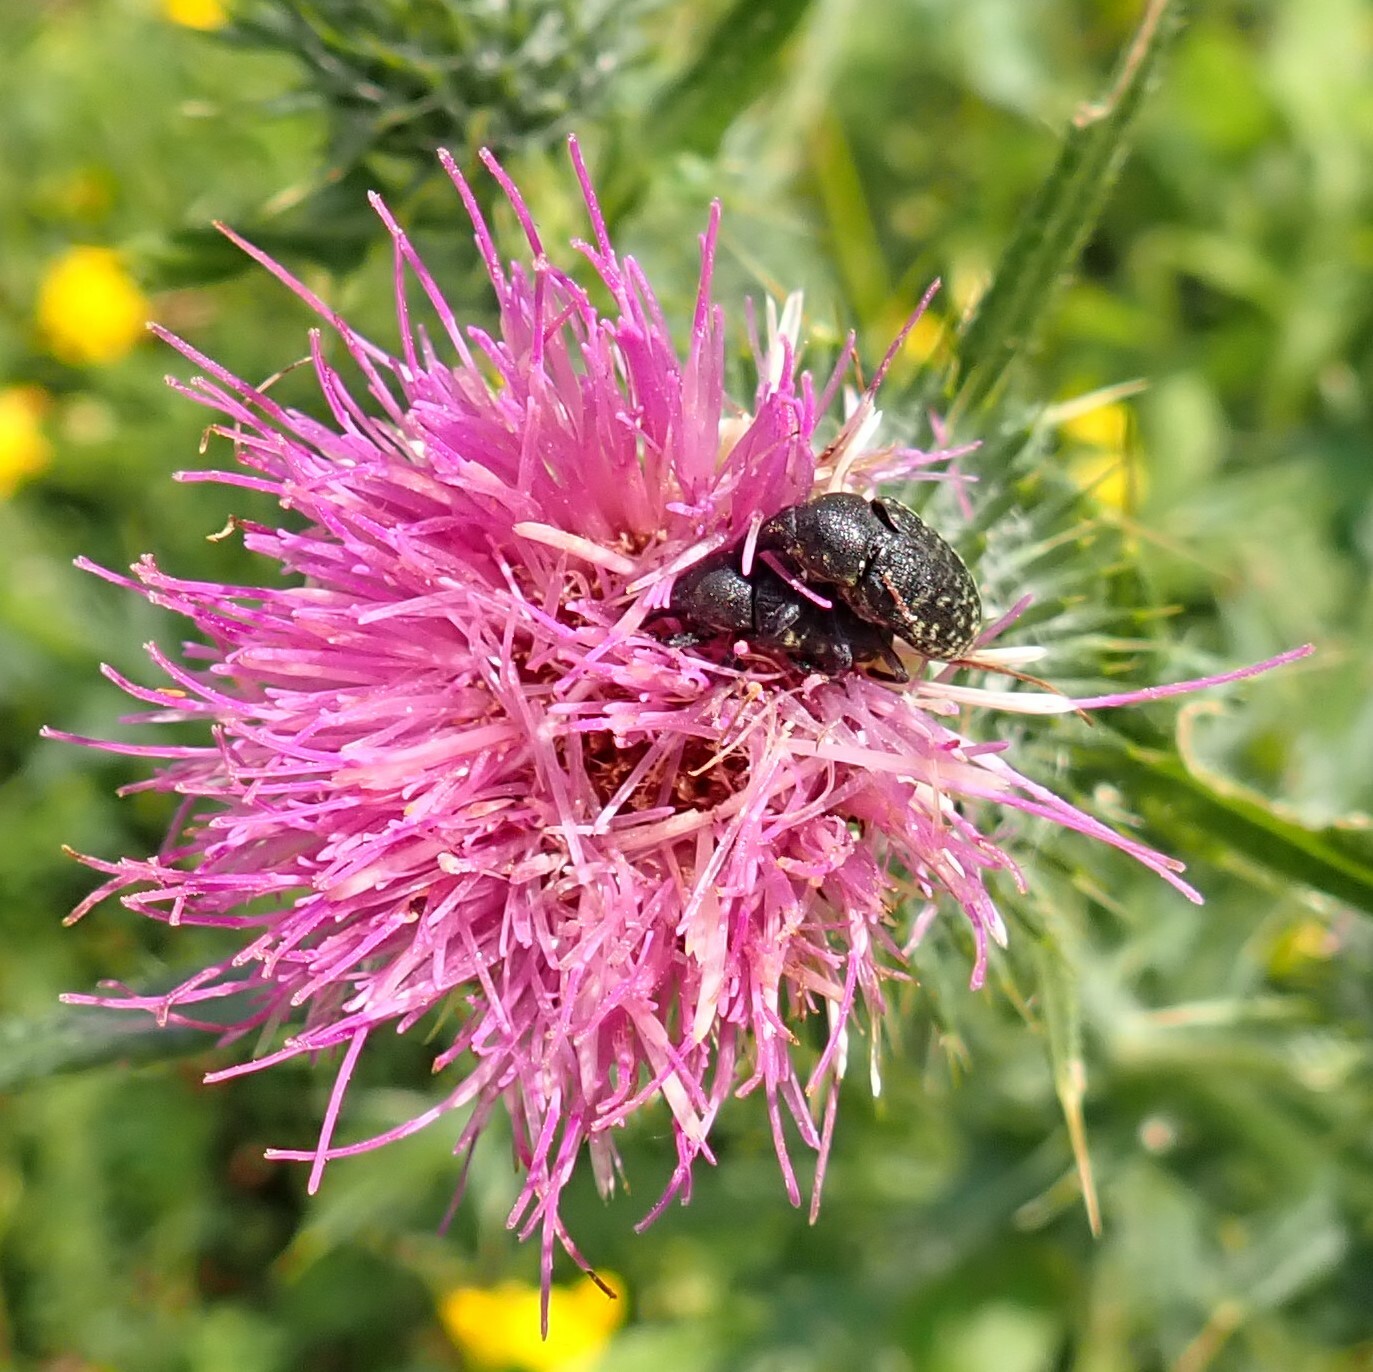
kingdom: Animalia
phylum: Arthropoda
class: Insecta
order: Coleoptera
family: Curculionidae
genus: Larinus
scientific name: Larinus turbinatus
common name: Weevil
